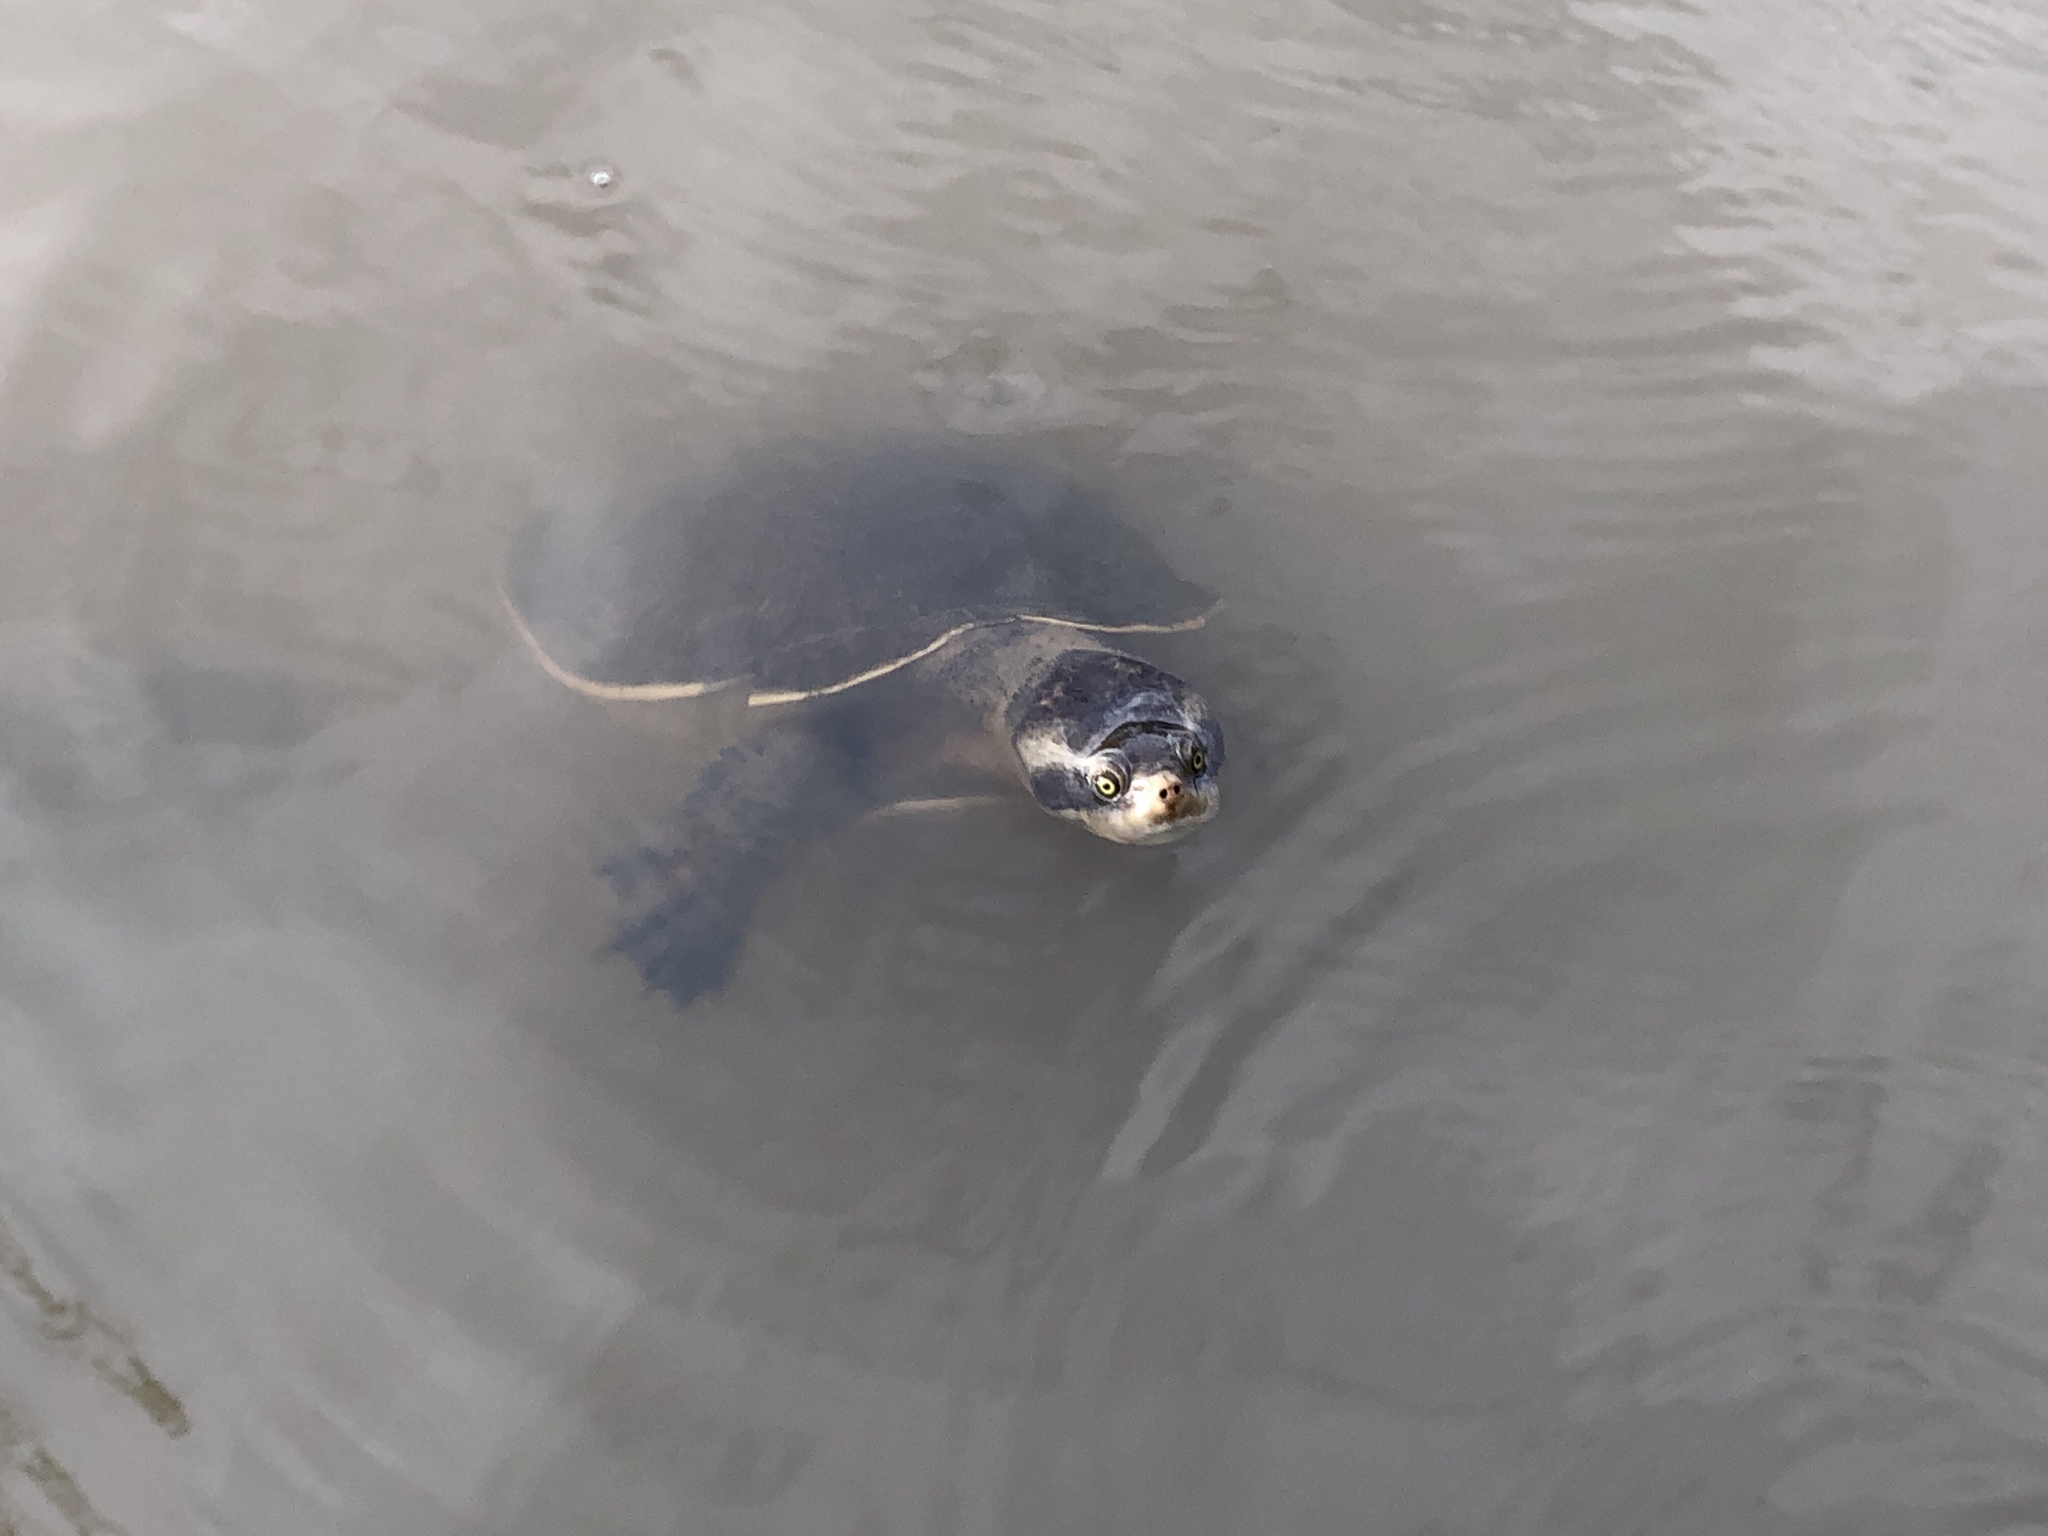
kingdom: Animalia
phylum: Chordata
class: Testudines
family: Chelidae
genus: Emydura
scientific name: Emydura macquarii
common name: Murray river turtle
